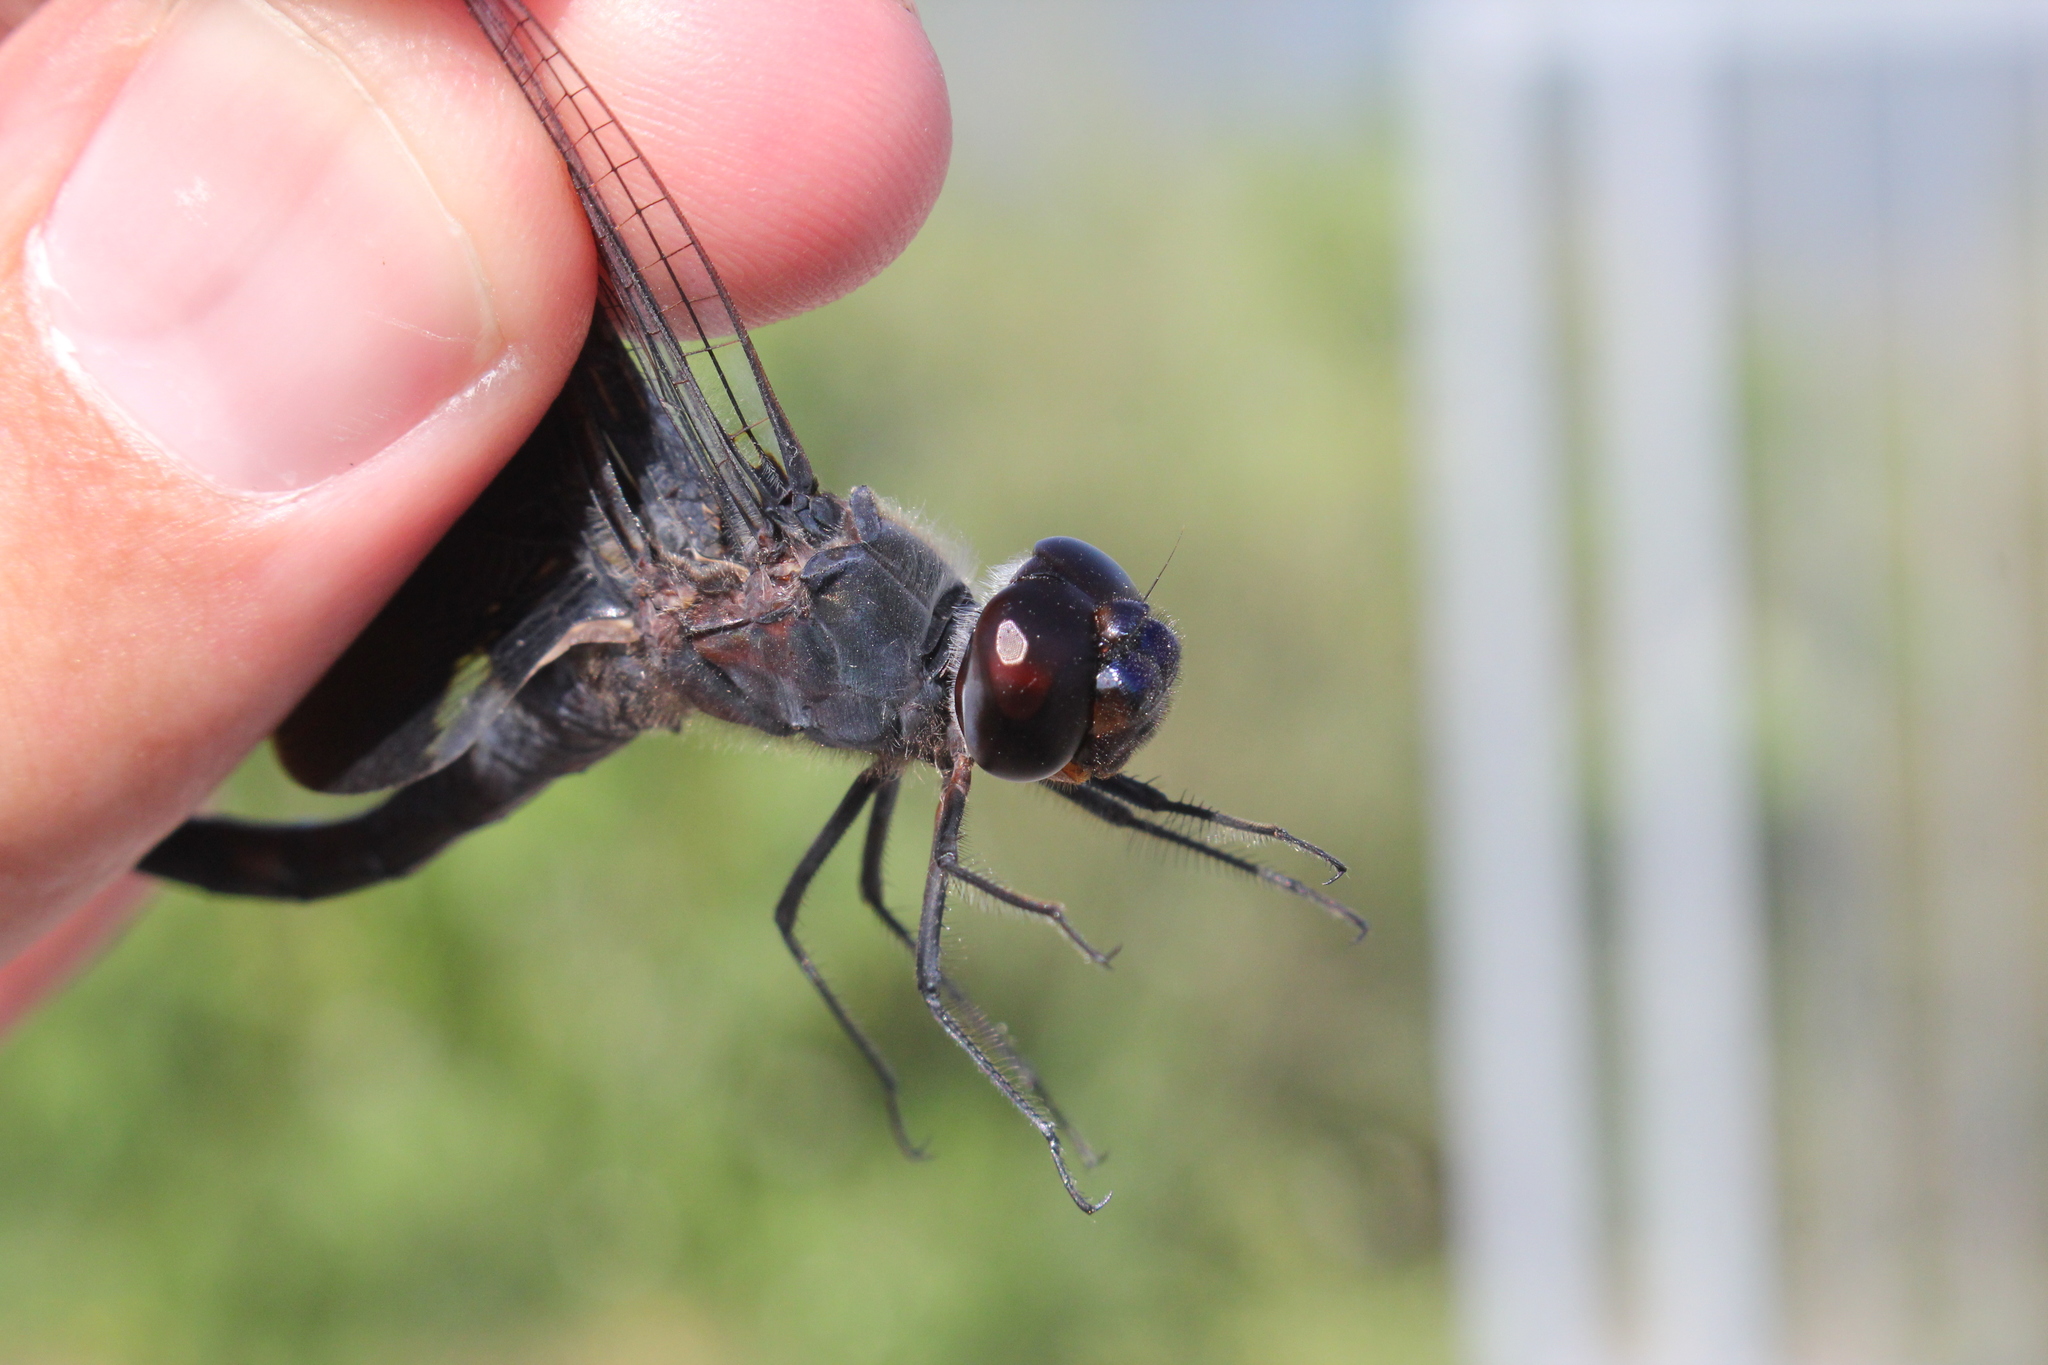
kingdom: Animalia
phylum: Arthropoda
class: Insecta
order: Odonata
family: Libellulidae
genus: Tramea
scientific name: Tramea lacerata
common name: Black saddlebags
